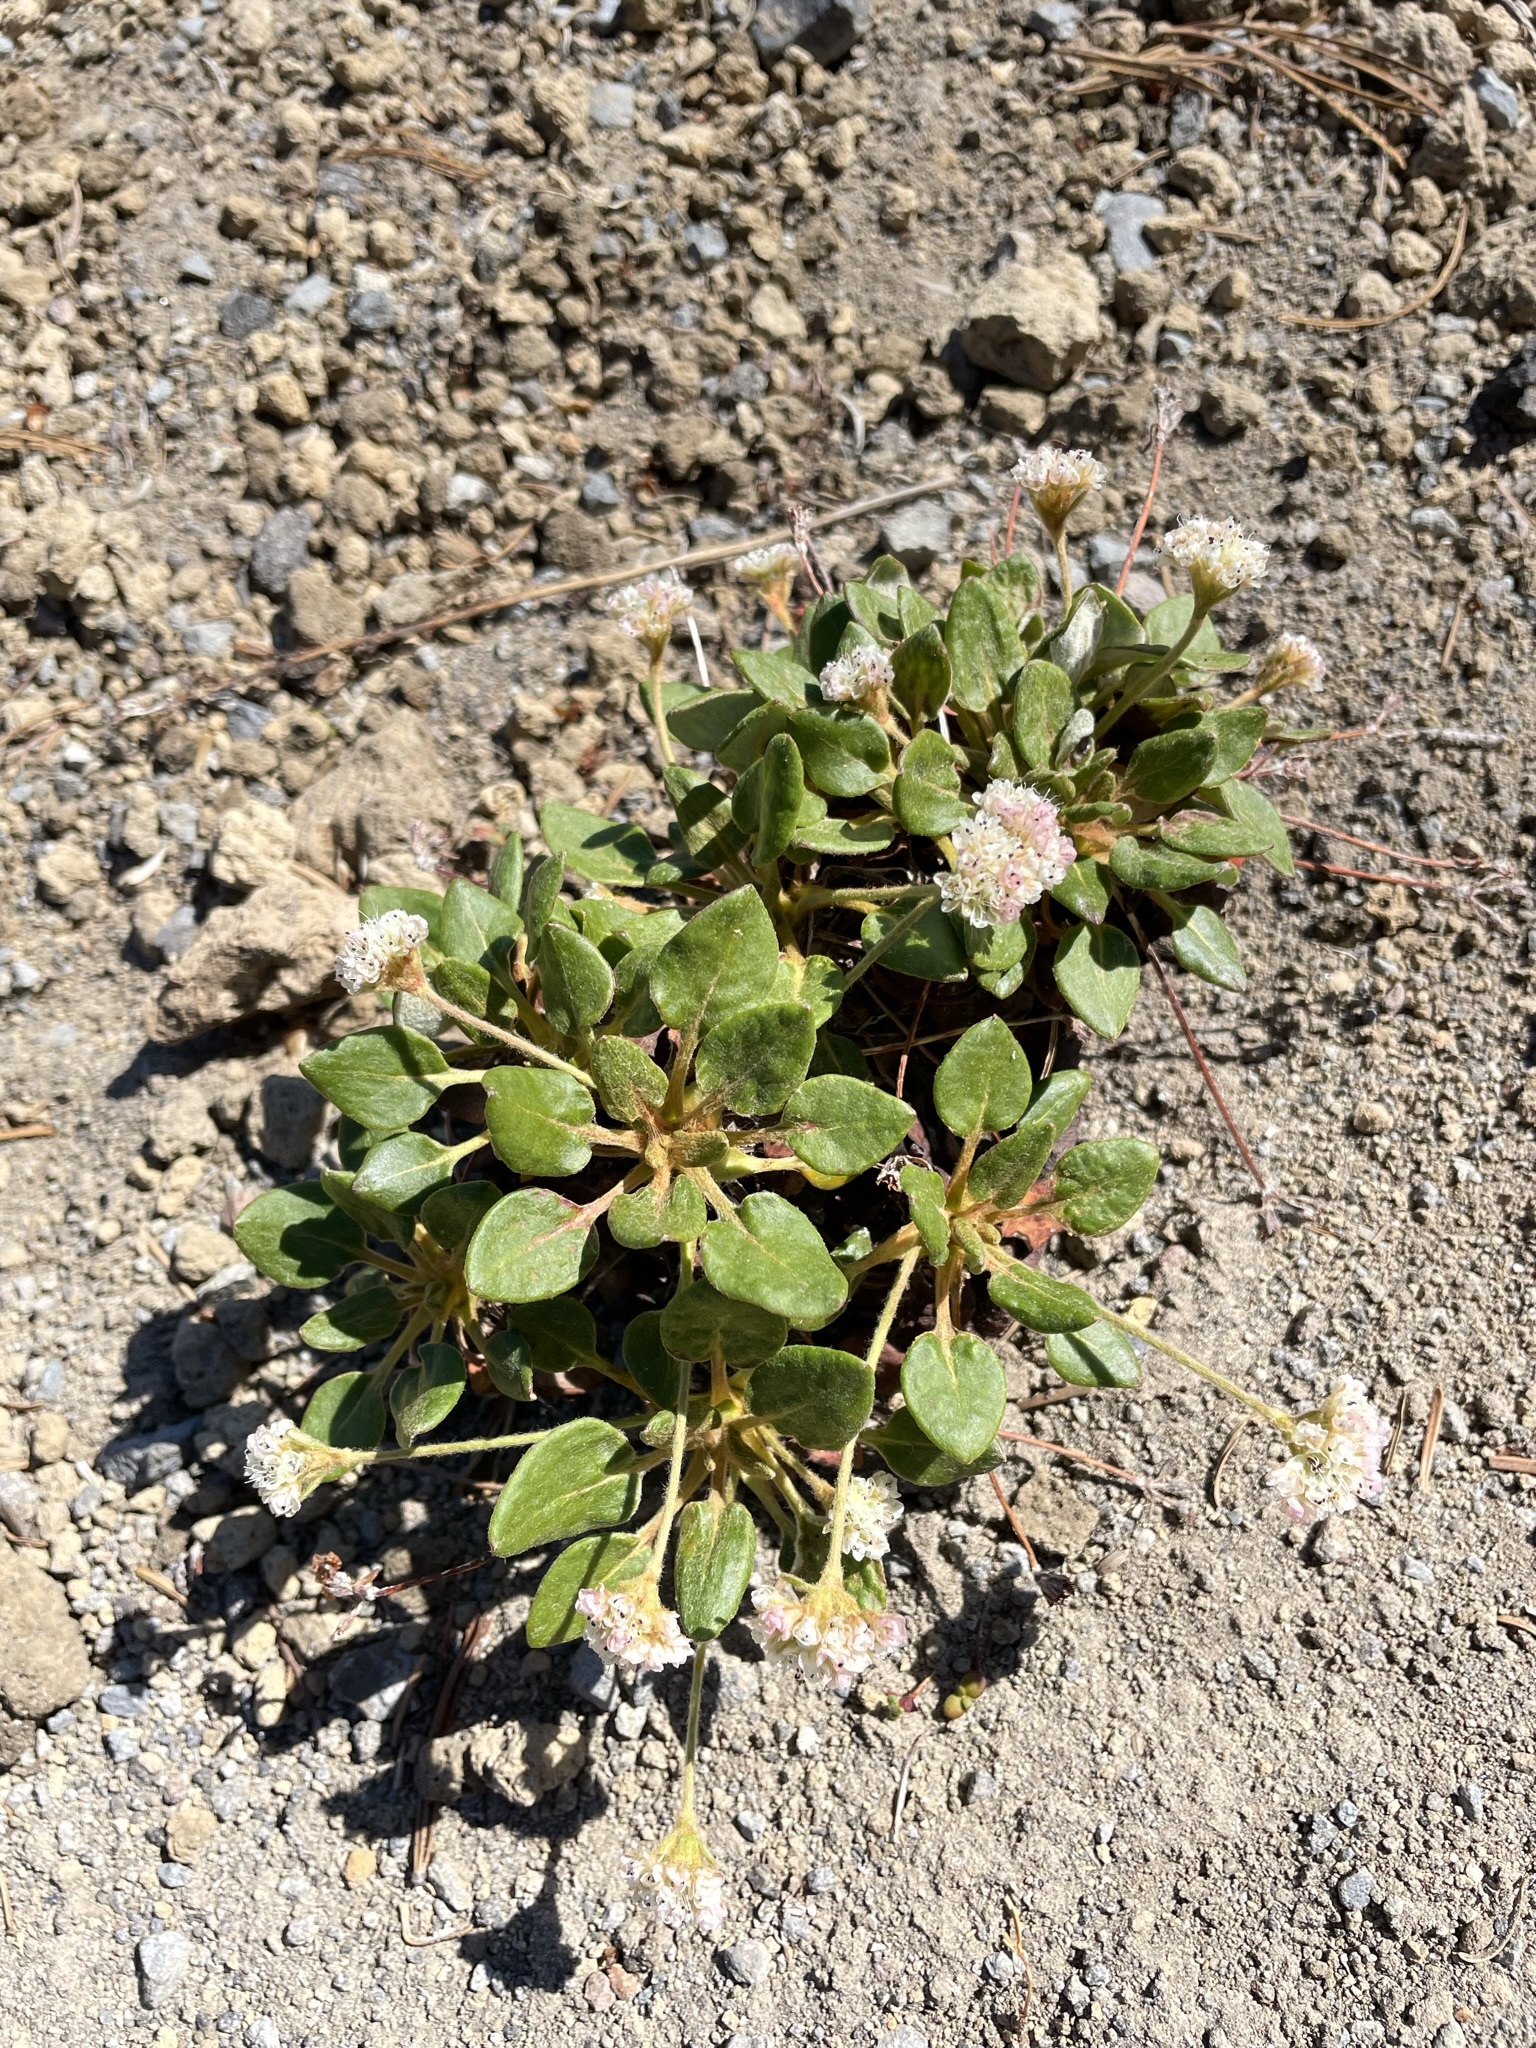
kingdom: Plantae
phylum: Tracheophyta
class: Magnoliopsida
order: Caryophyllales
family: Polygonaceae
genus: Eriogonum
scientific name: Eriogonum pyrolifolium
